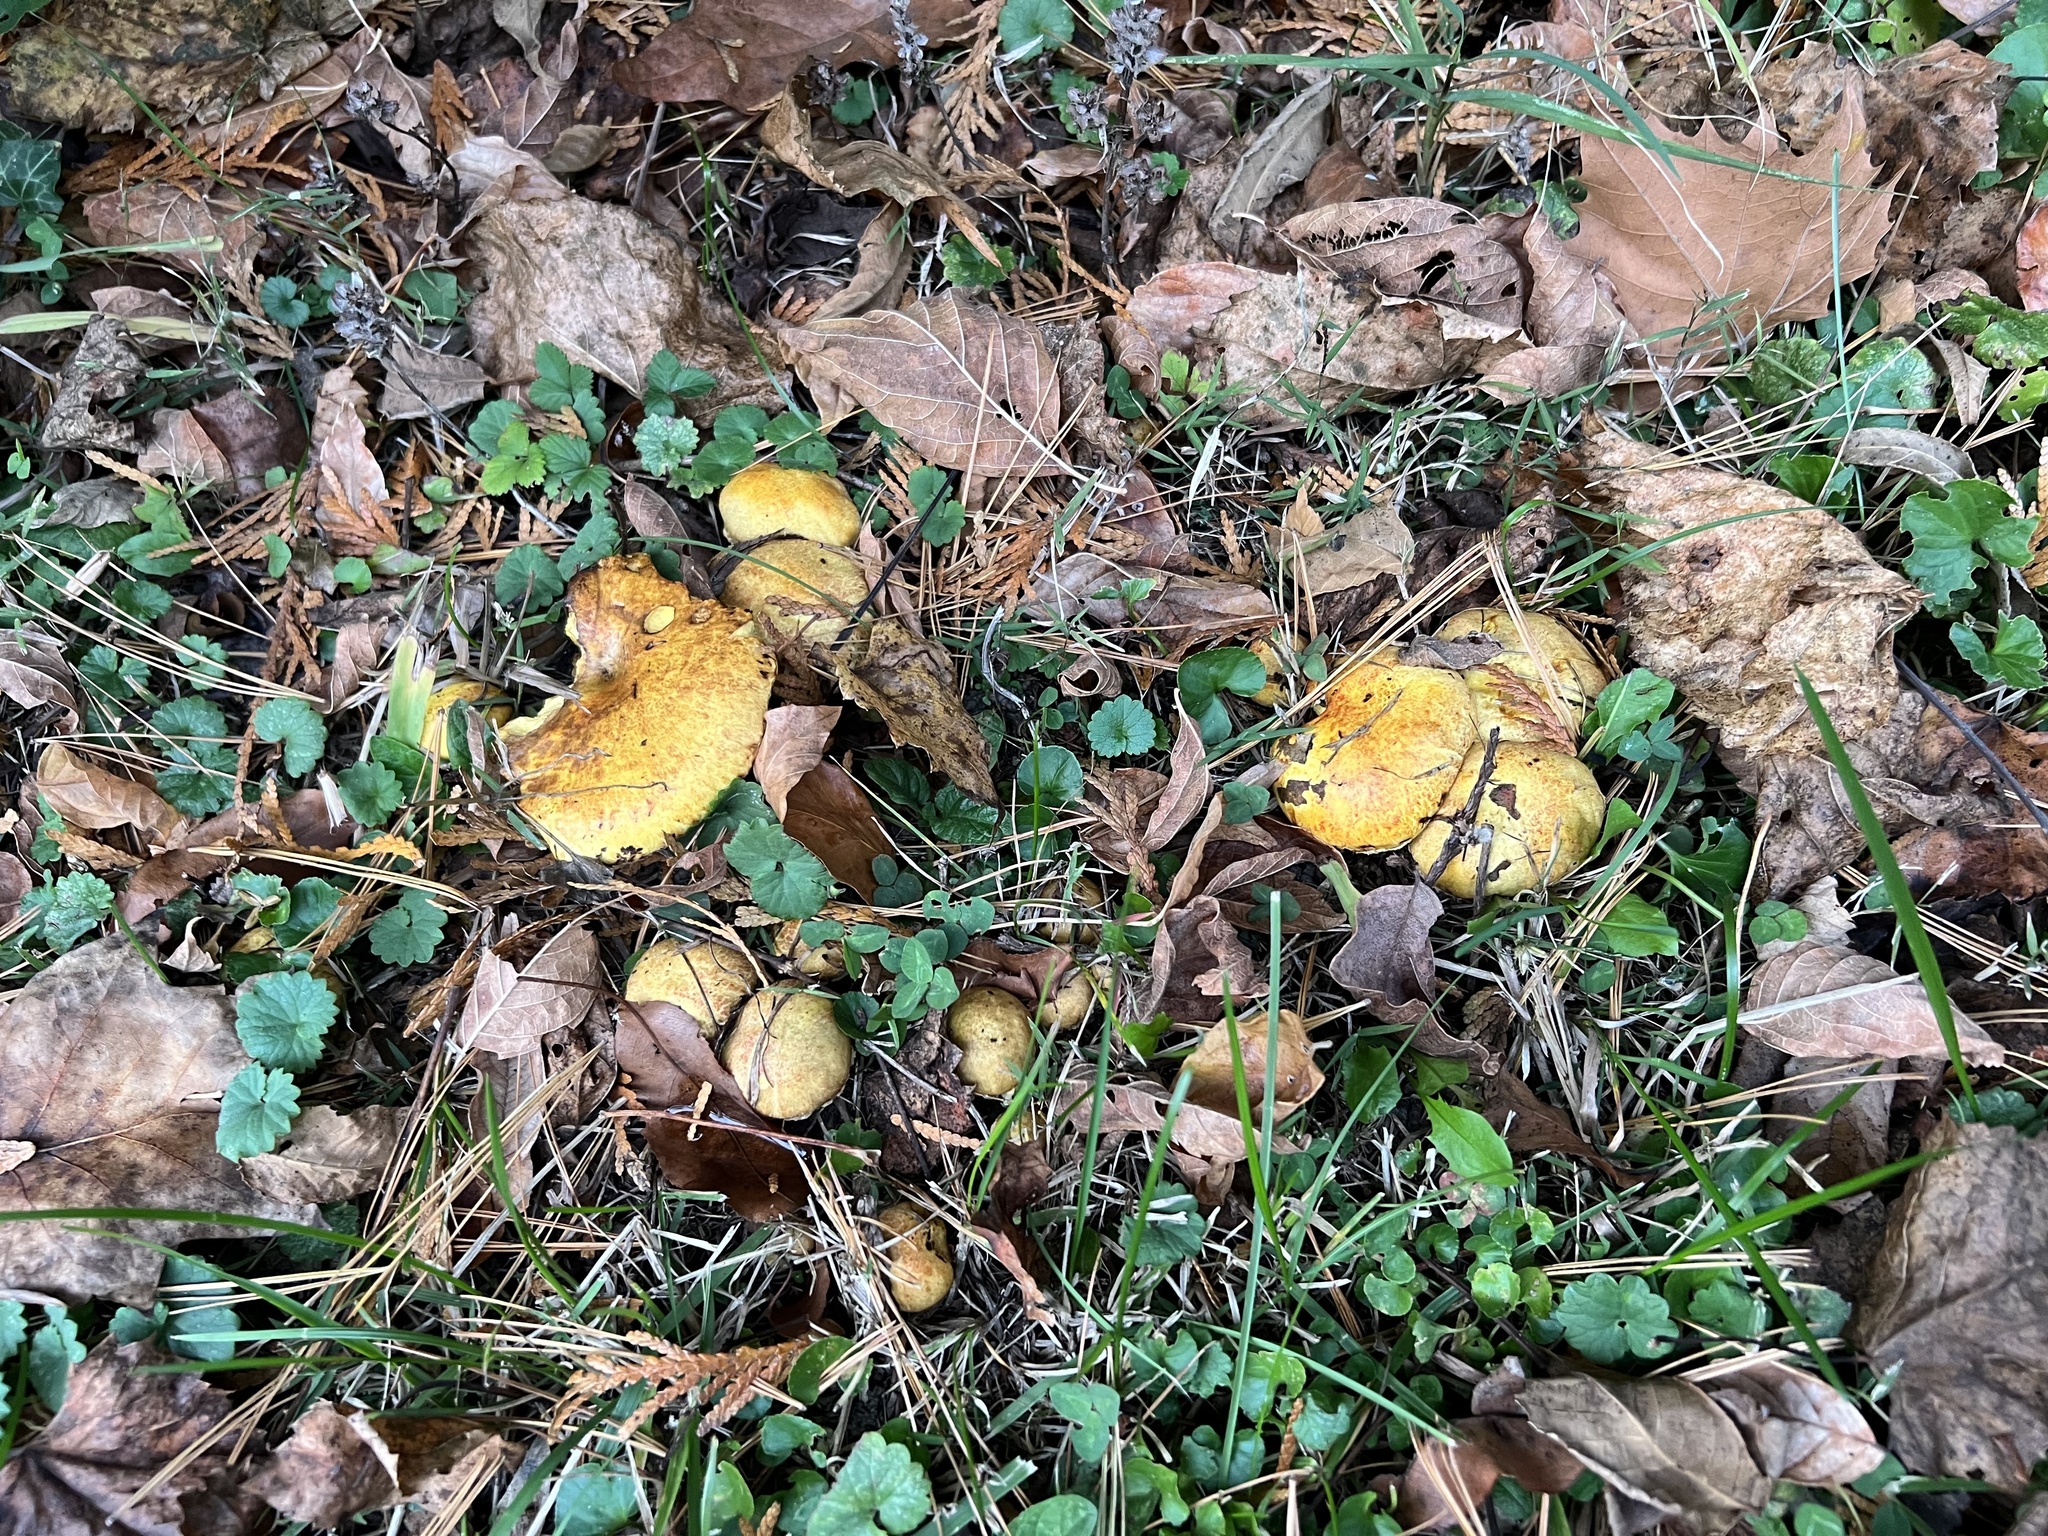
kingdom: Fungi
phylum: Basidiomycota
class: Agaricomycetes
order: Boletales
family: Suillaceae
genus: Suillus
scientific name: Suillus americanus
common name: Chicken fat mushroom
